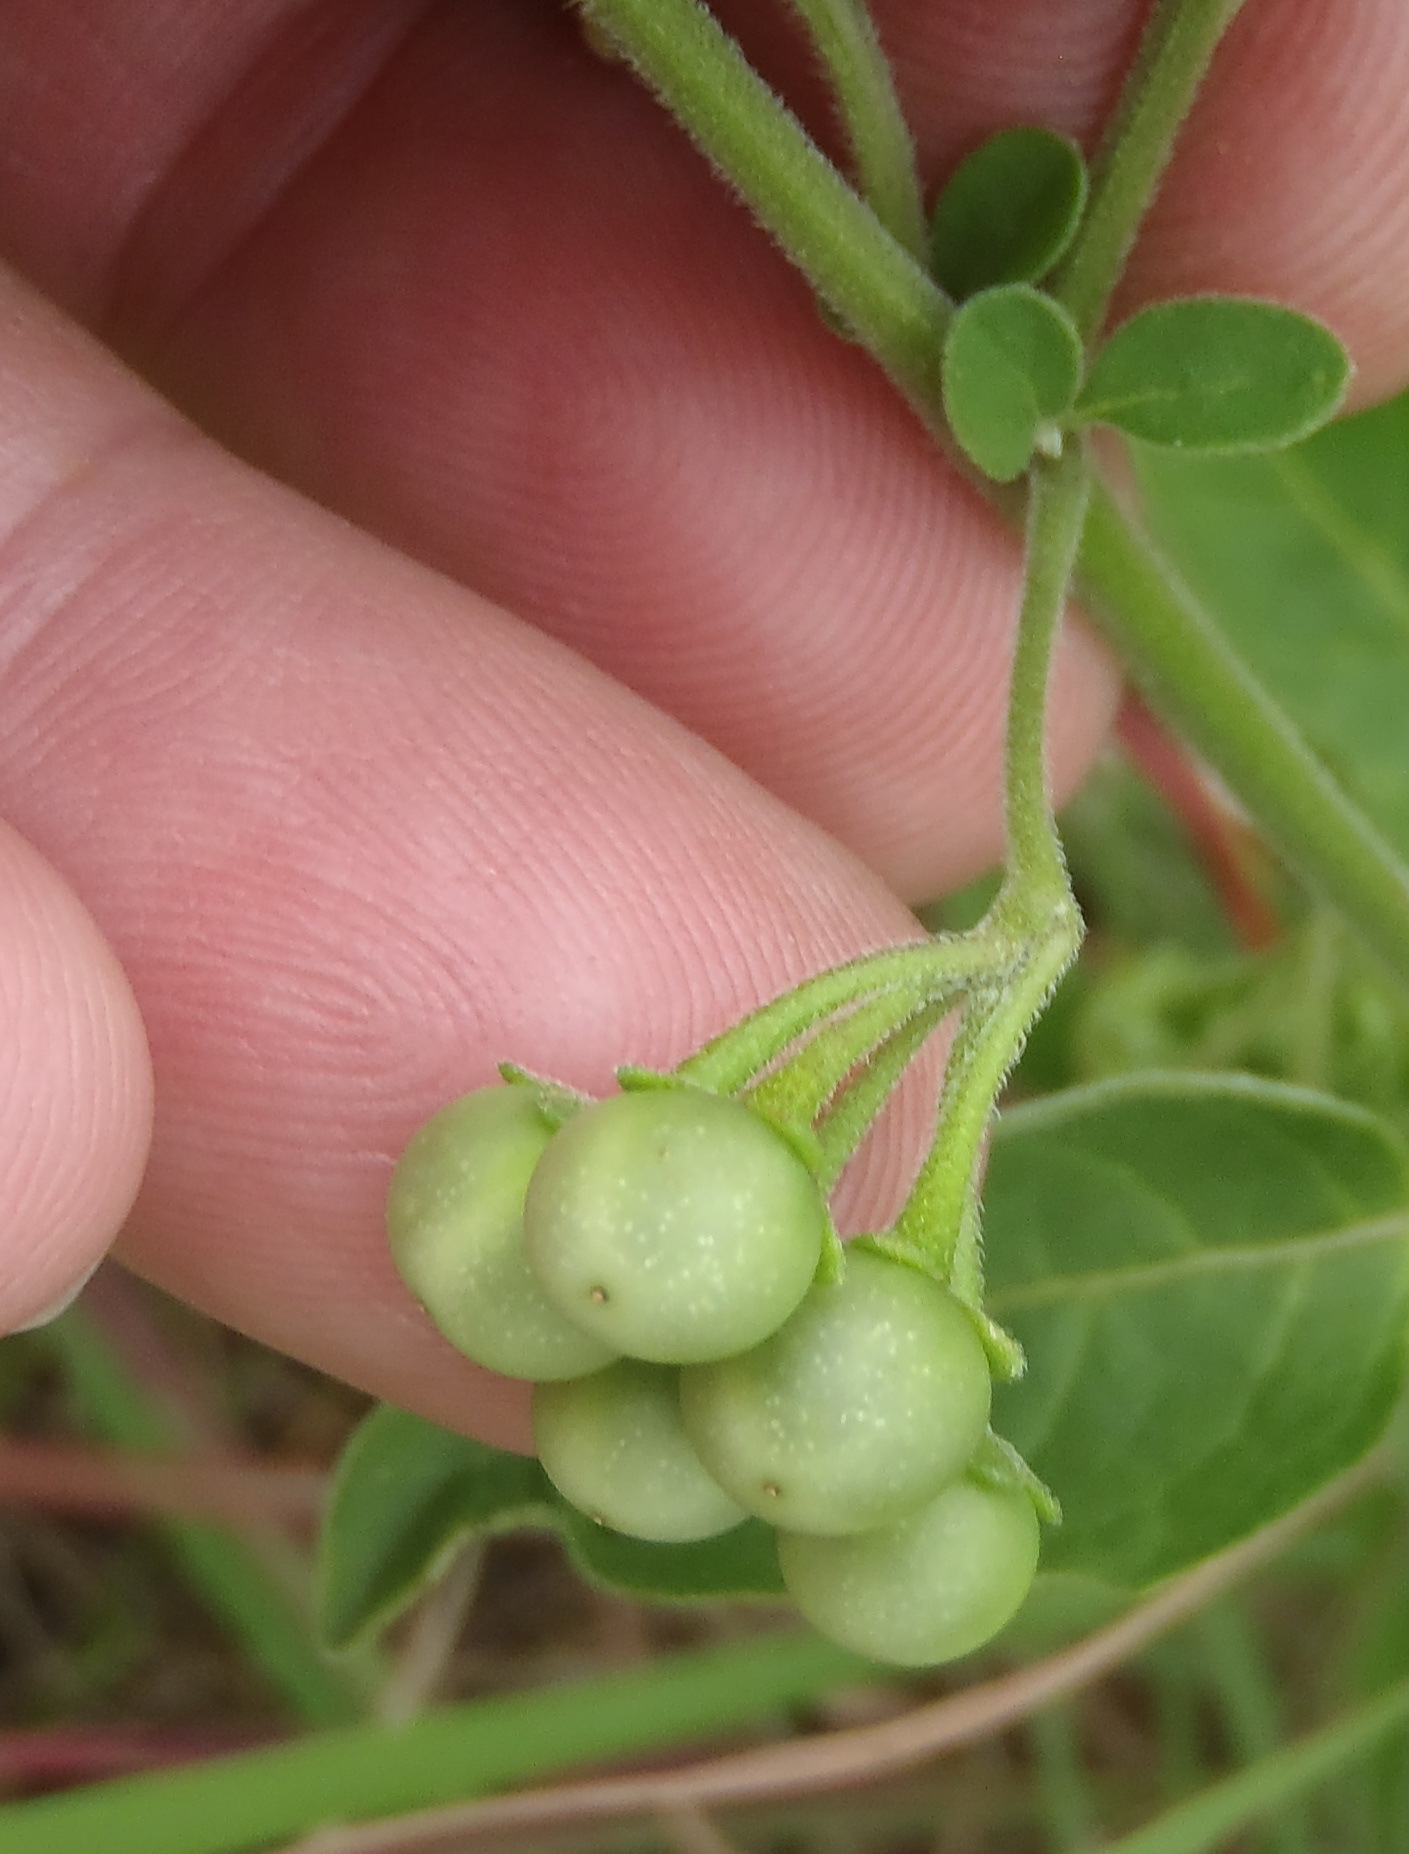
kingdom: Plantae
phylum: Tracheophyta
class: Magnoliopsida
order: Solanales
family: Solanaceae
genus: Solanum
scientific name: Solanum chenopodioides
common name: Tall nightshade
